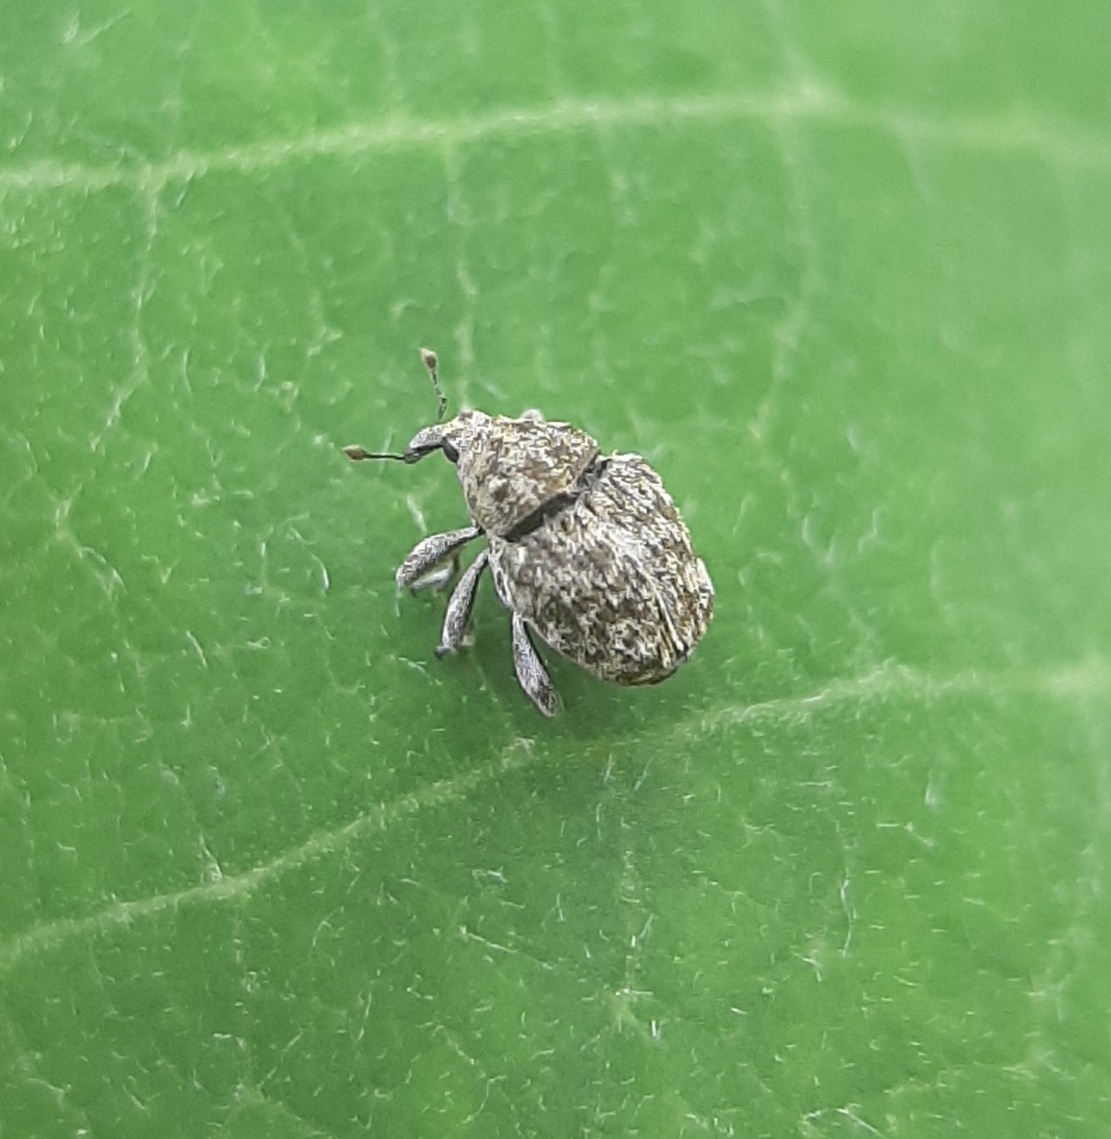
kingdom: Animalia
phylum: Arthropoda
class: Insecta
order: Coleoptera
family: Curculionidae
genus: Acanthoscelidius
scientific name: Acanthoscelidius acephalus
